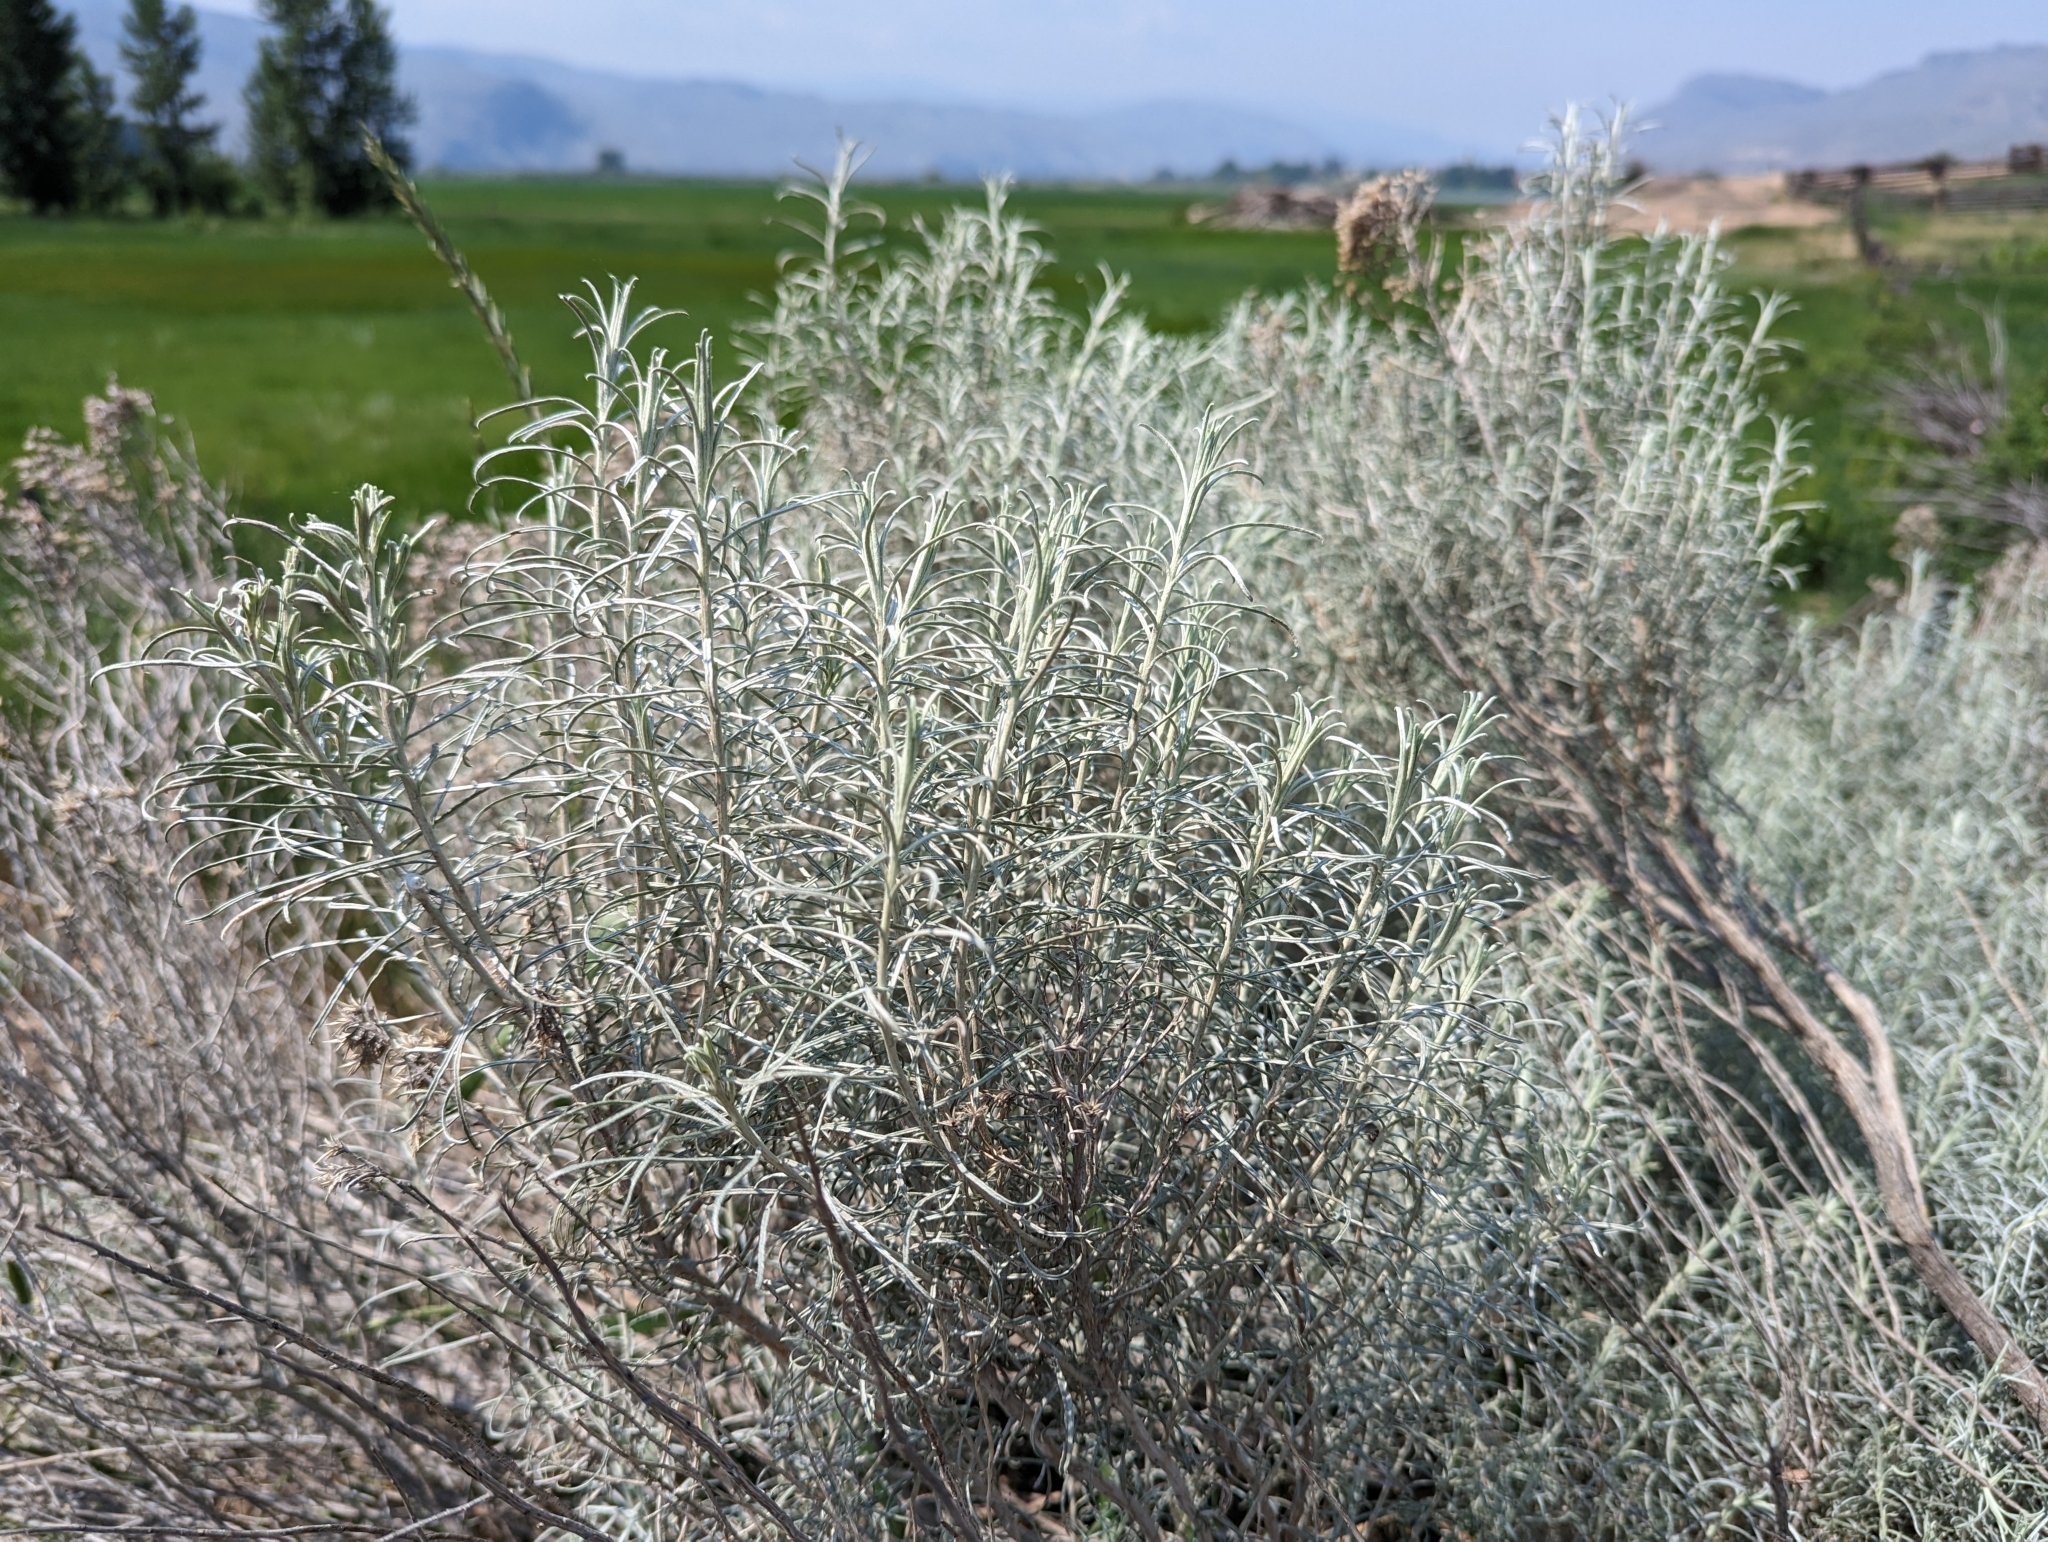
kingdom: Plantae
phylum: Tracheophyta
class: Magnoliopsida
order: Asterales
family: Asteraceae
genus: Ericameria
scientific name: Ericameria nauseosa
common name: Rubber rabbitbrush
